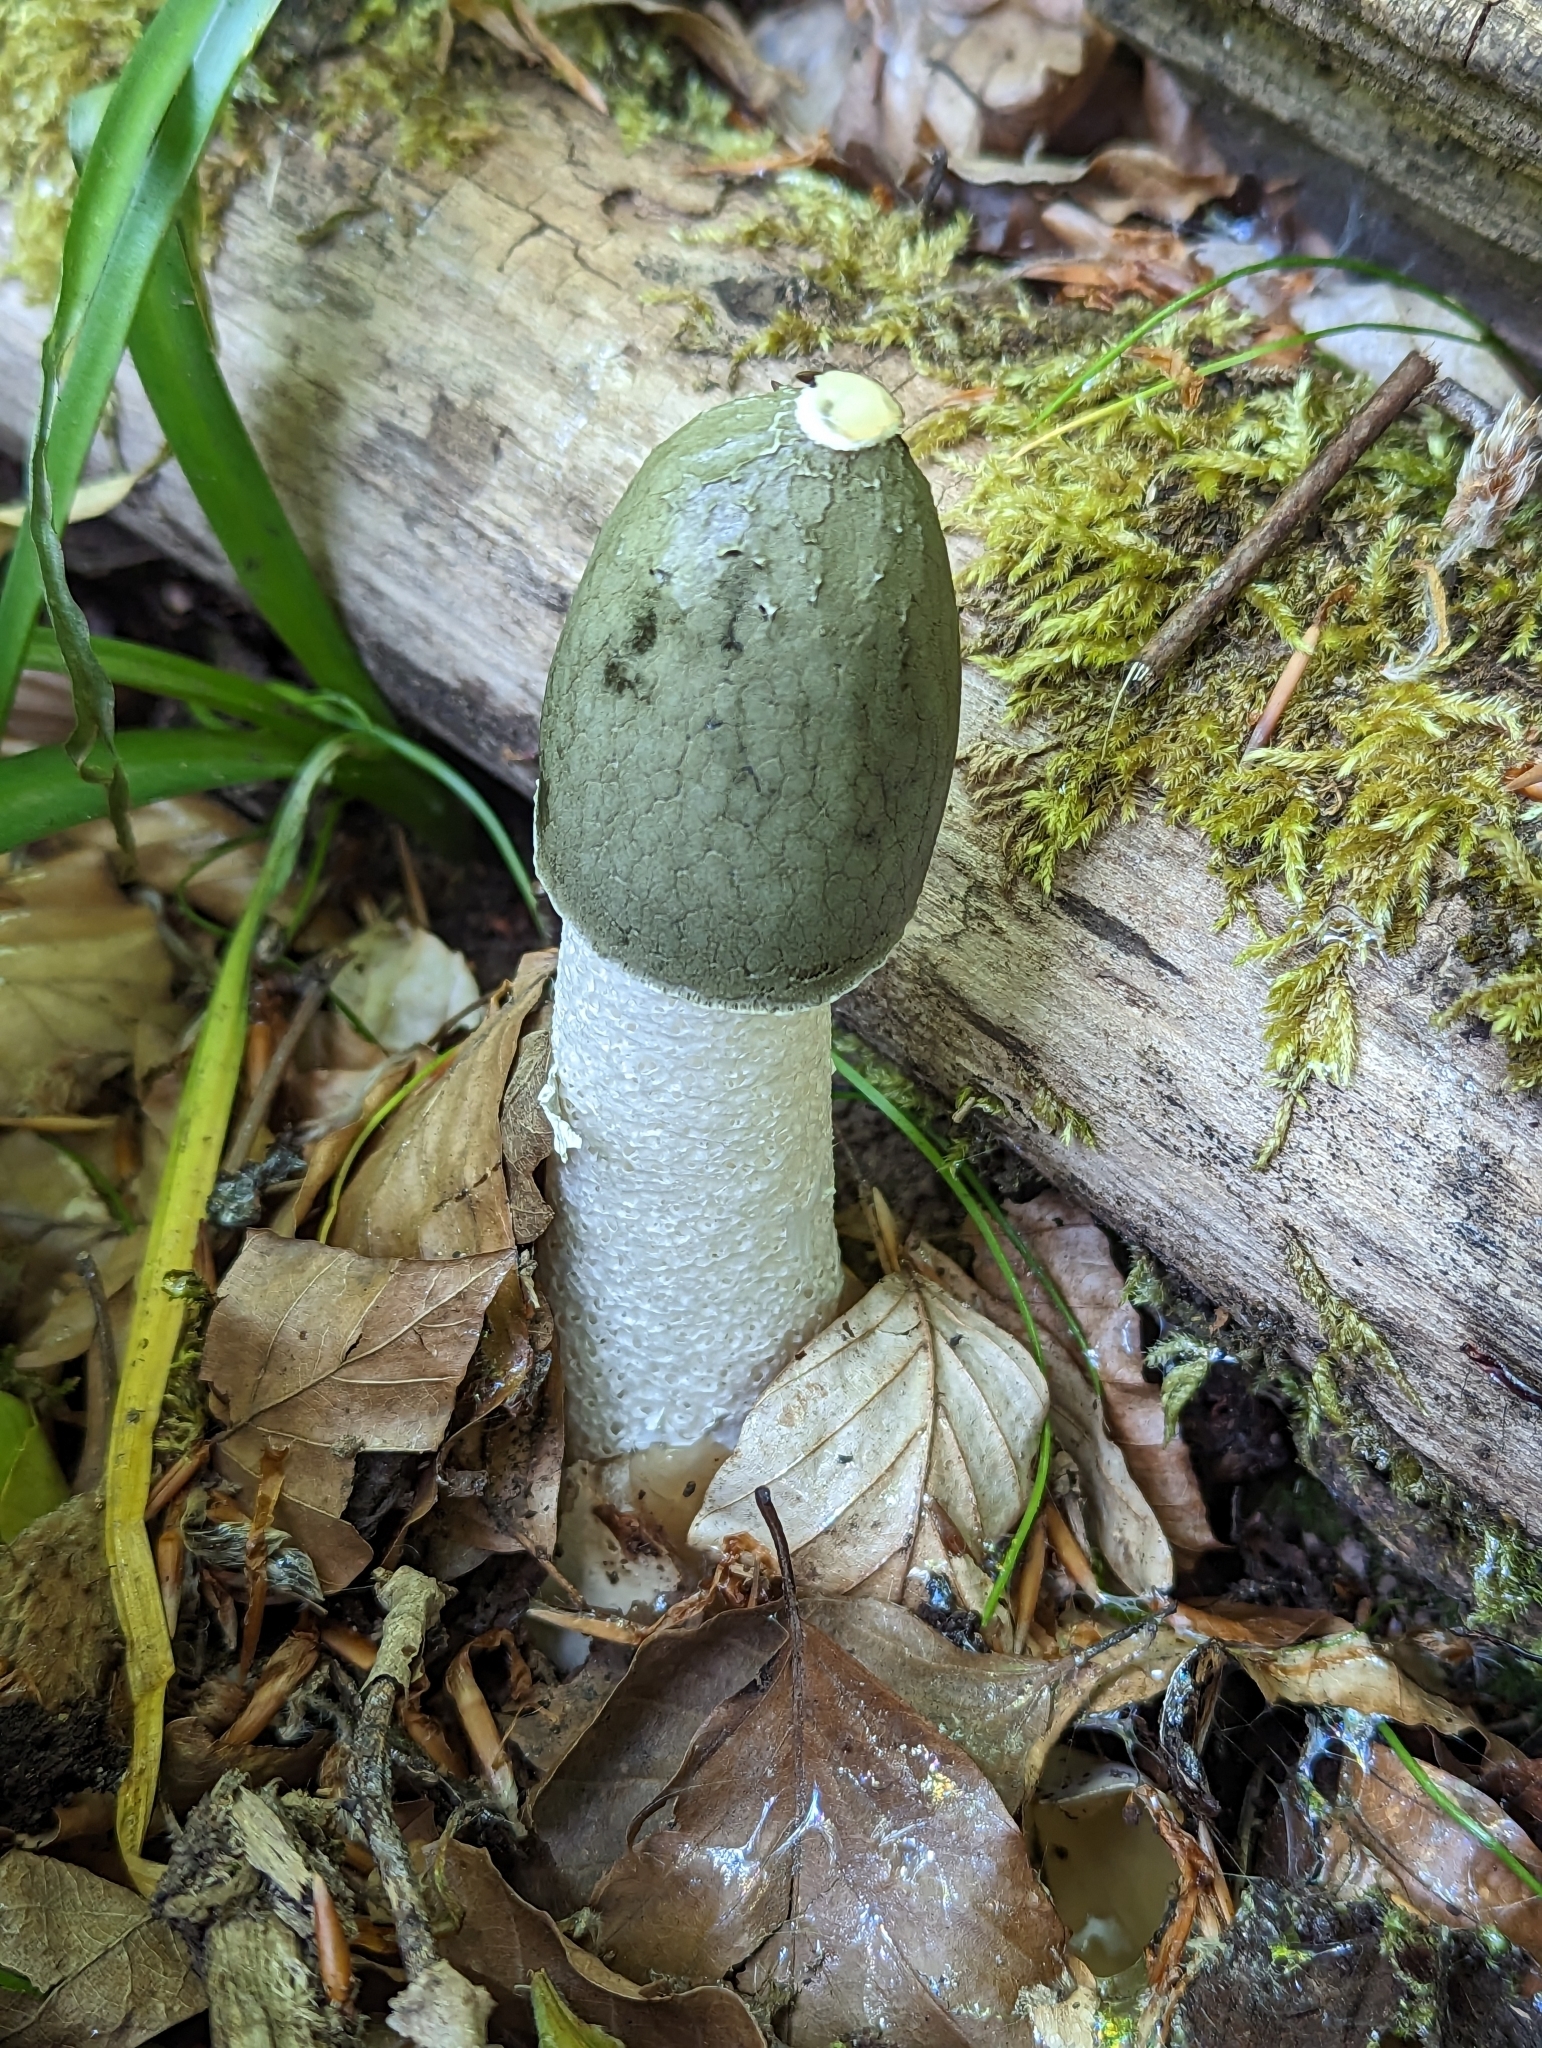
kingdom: Fungi
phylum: Basidiomycota
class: Agaricomycetes
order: Phallales
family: Phallaceae
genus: Phallus
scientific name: Phallus impudicus
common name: Common stinkhorn
